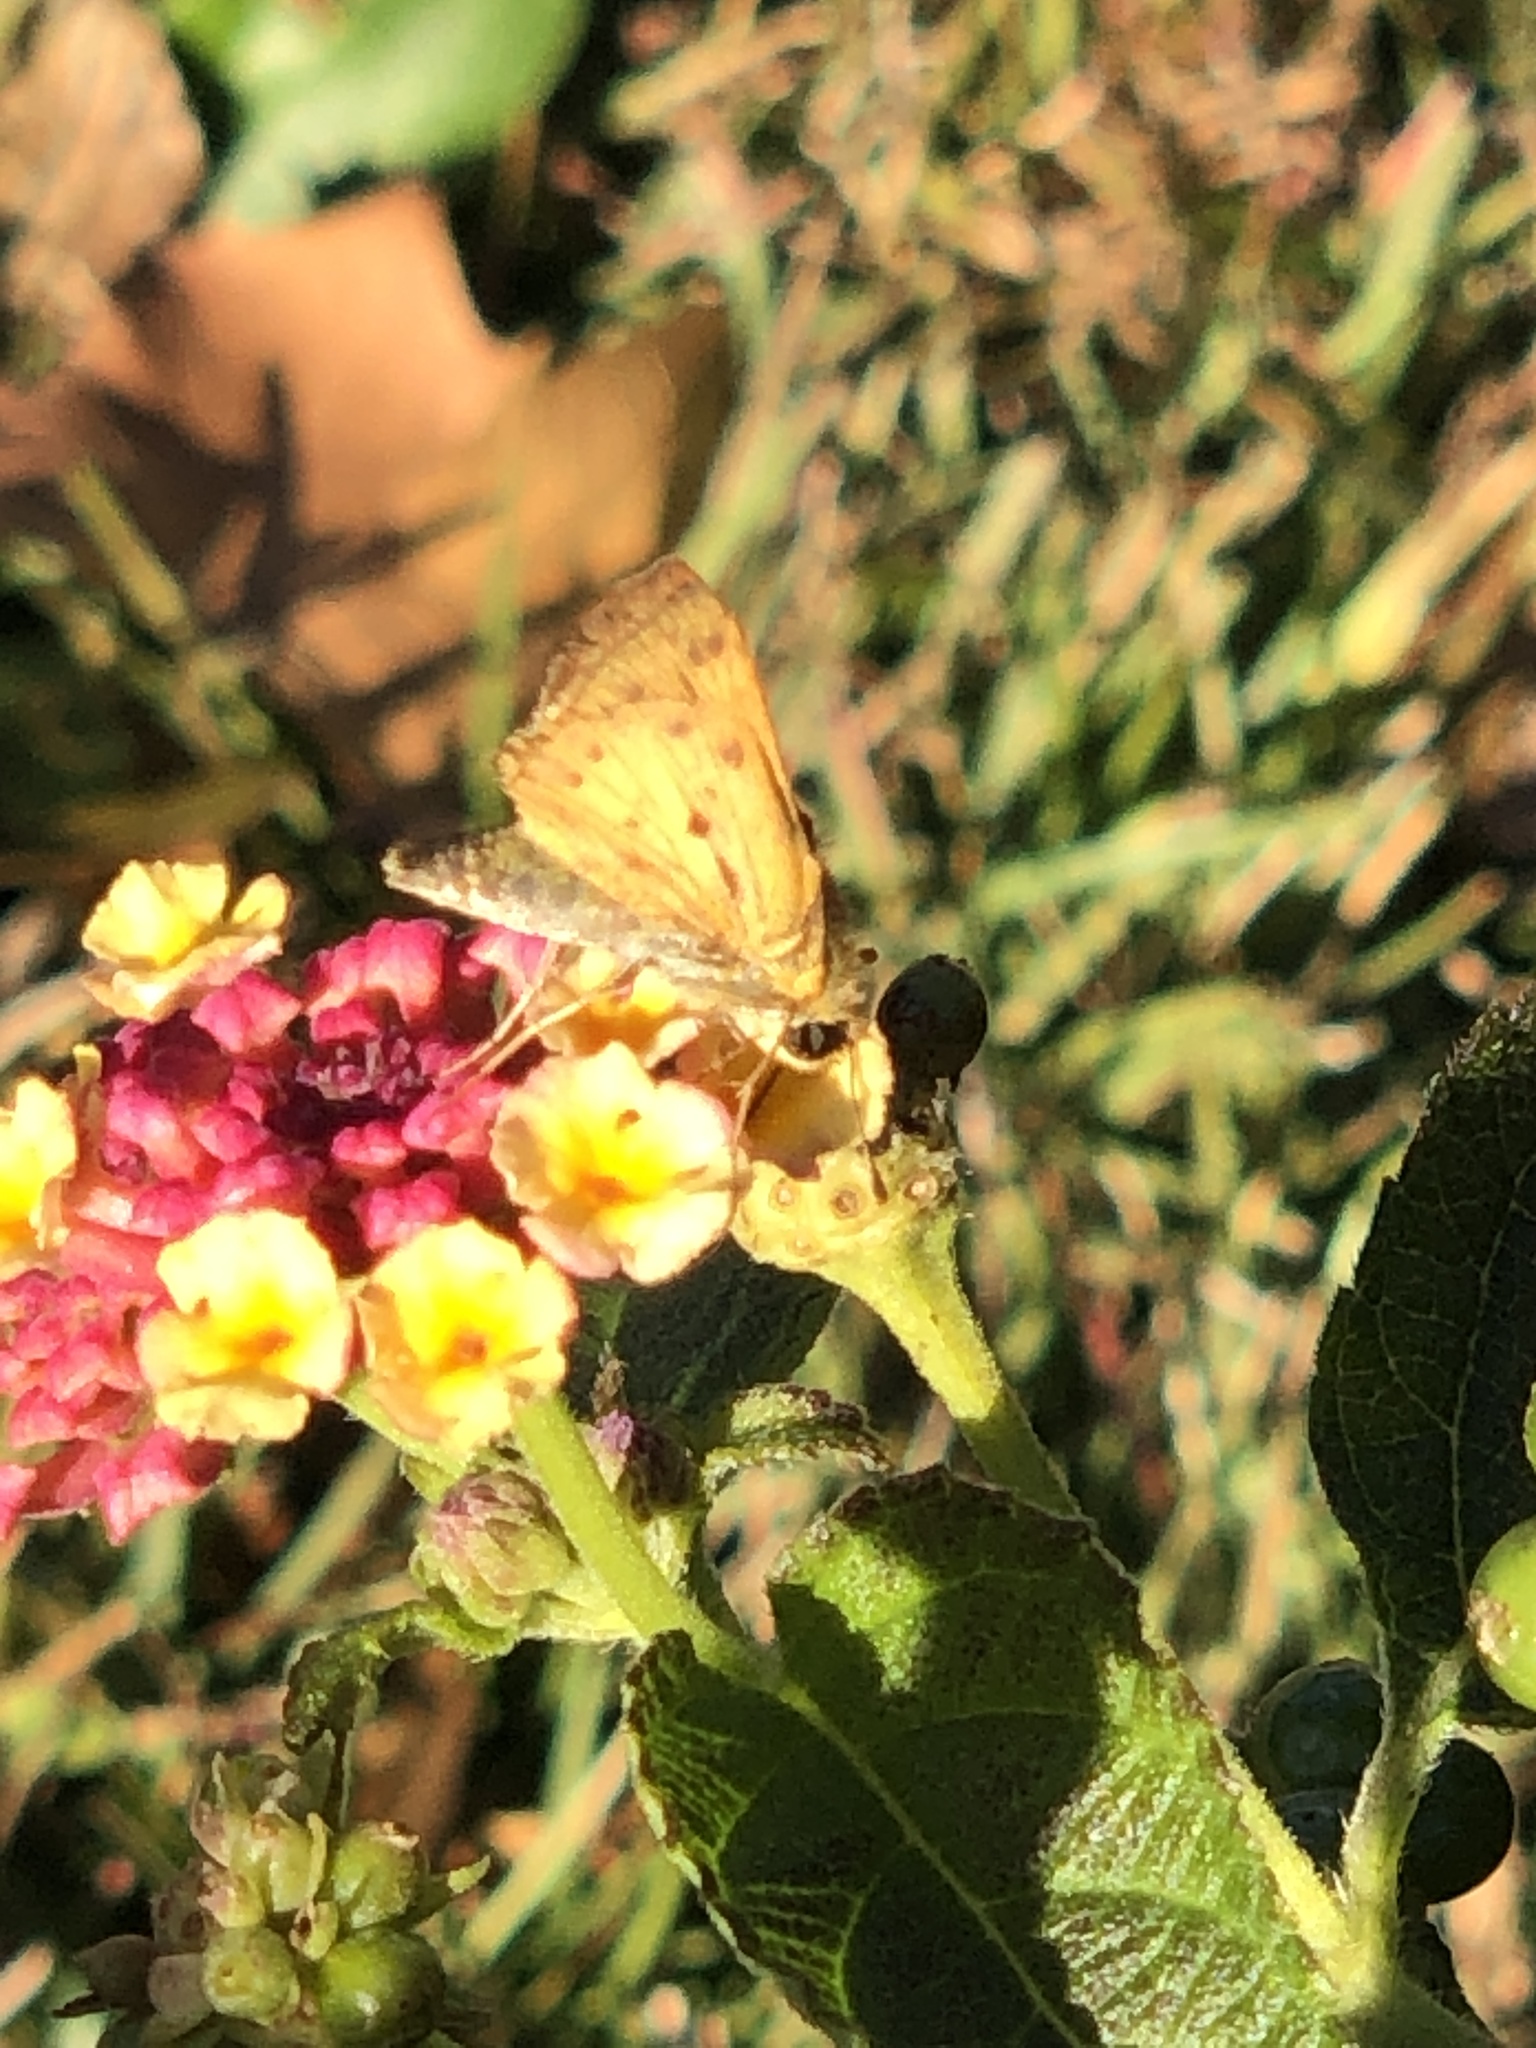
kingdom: Animalia
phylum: Arthropoda
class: Insecta
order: Lepidoptera
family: Hesperiidae
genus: Hylephila
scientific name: Hylephila phyleus
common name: Fiery skipper
